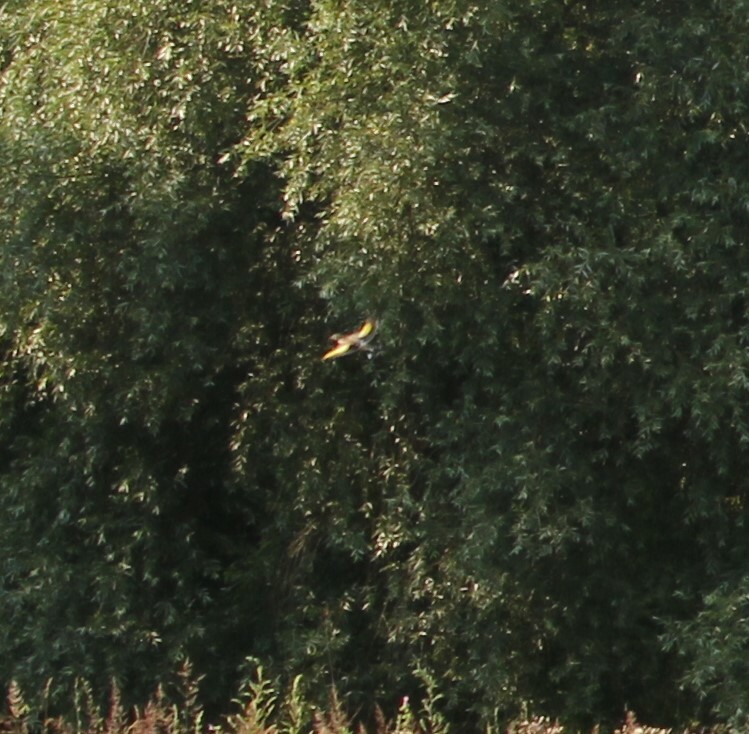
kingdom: Animalia
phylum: Chordata
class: Aves
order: Passeriformes
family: Fringillidae
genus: Carduelis
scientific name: Carduelis carduelis
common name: European goldfinch
